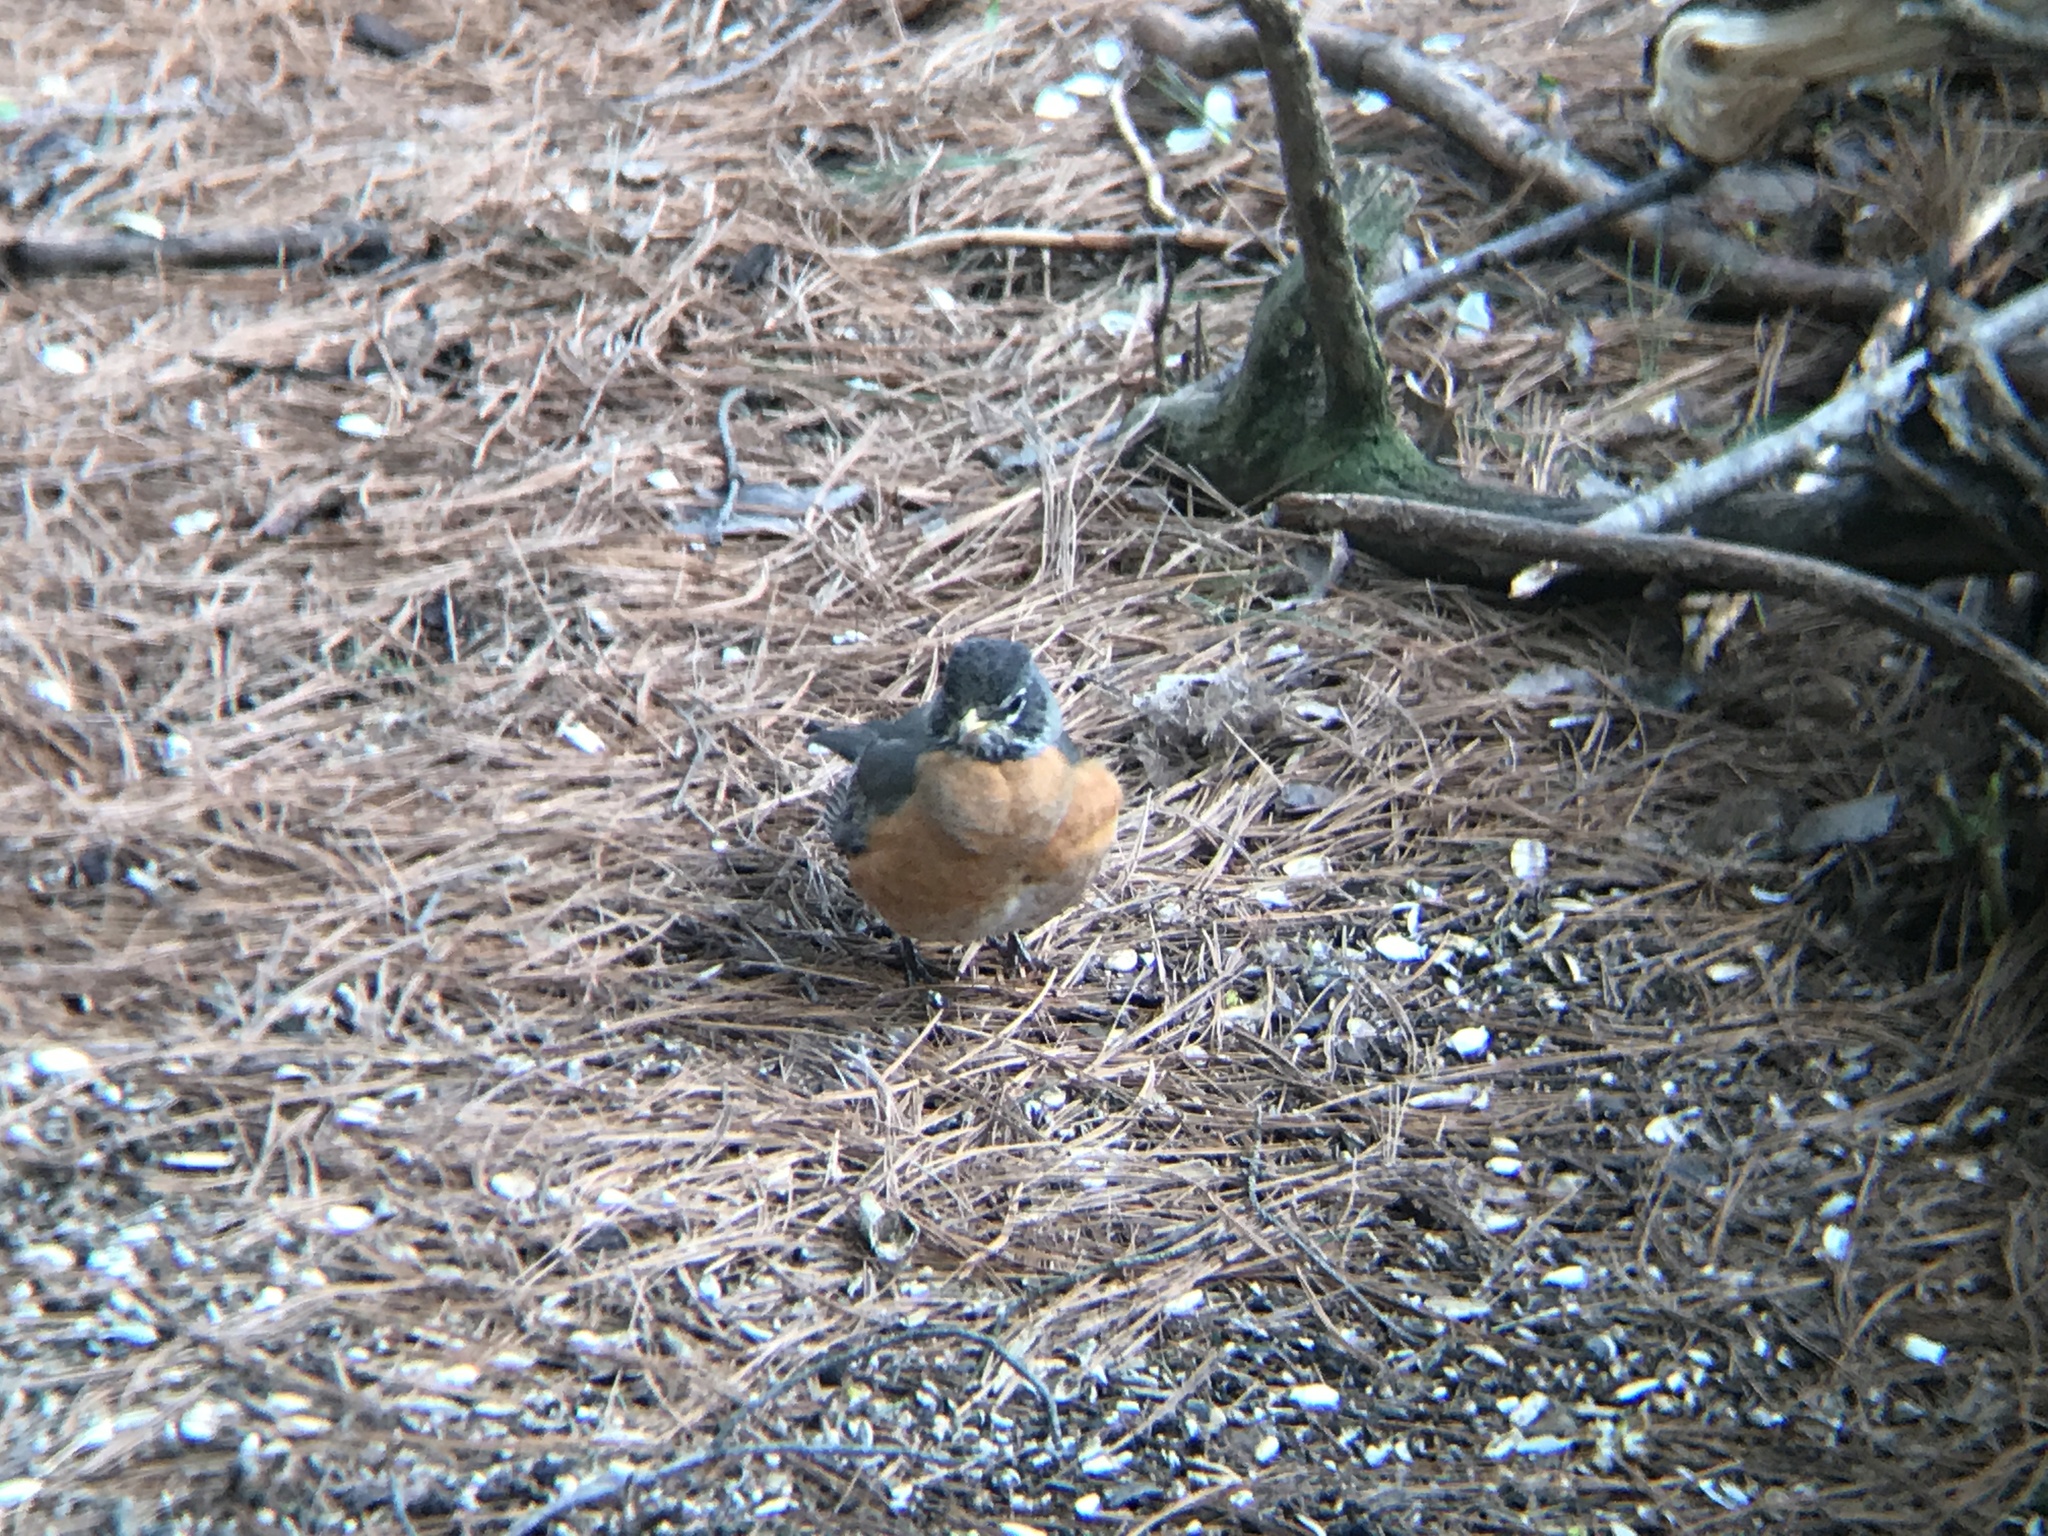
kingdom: Animalia
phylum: Chordata
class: Aves
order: Passeriformes
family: Turdidae
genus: Turdus
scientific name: Turdus migratorius
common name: American robin
